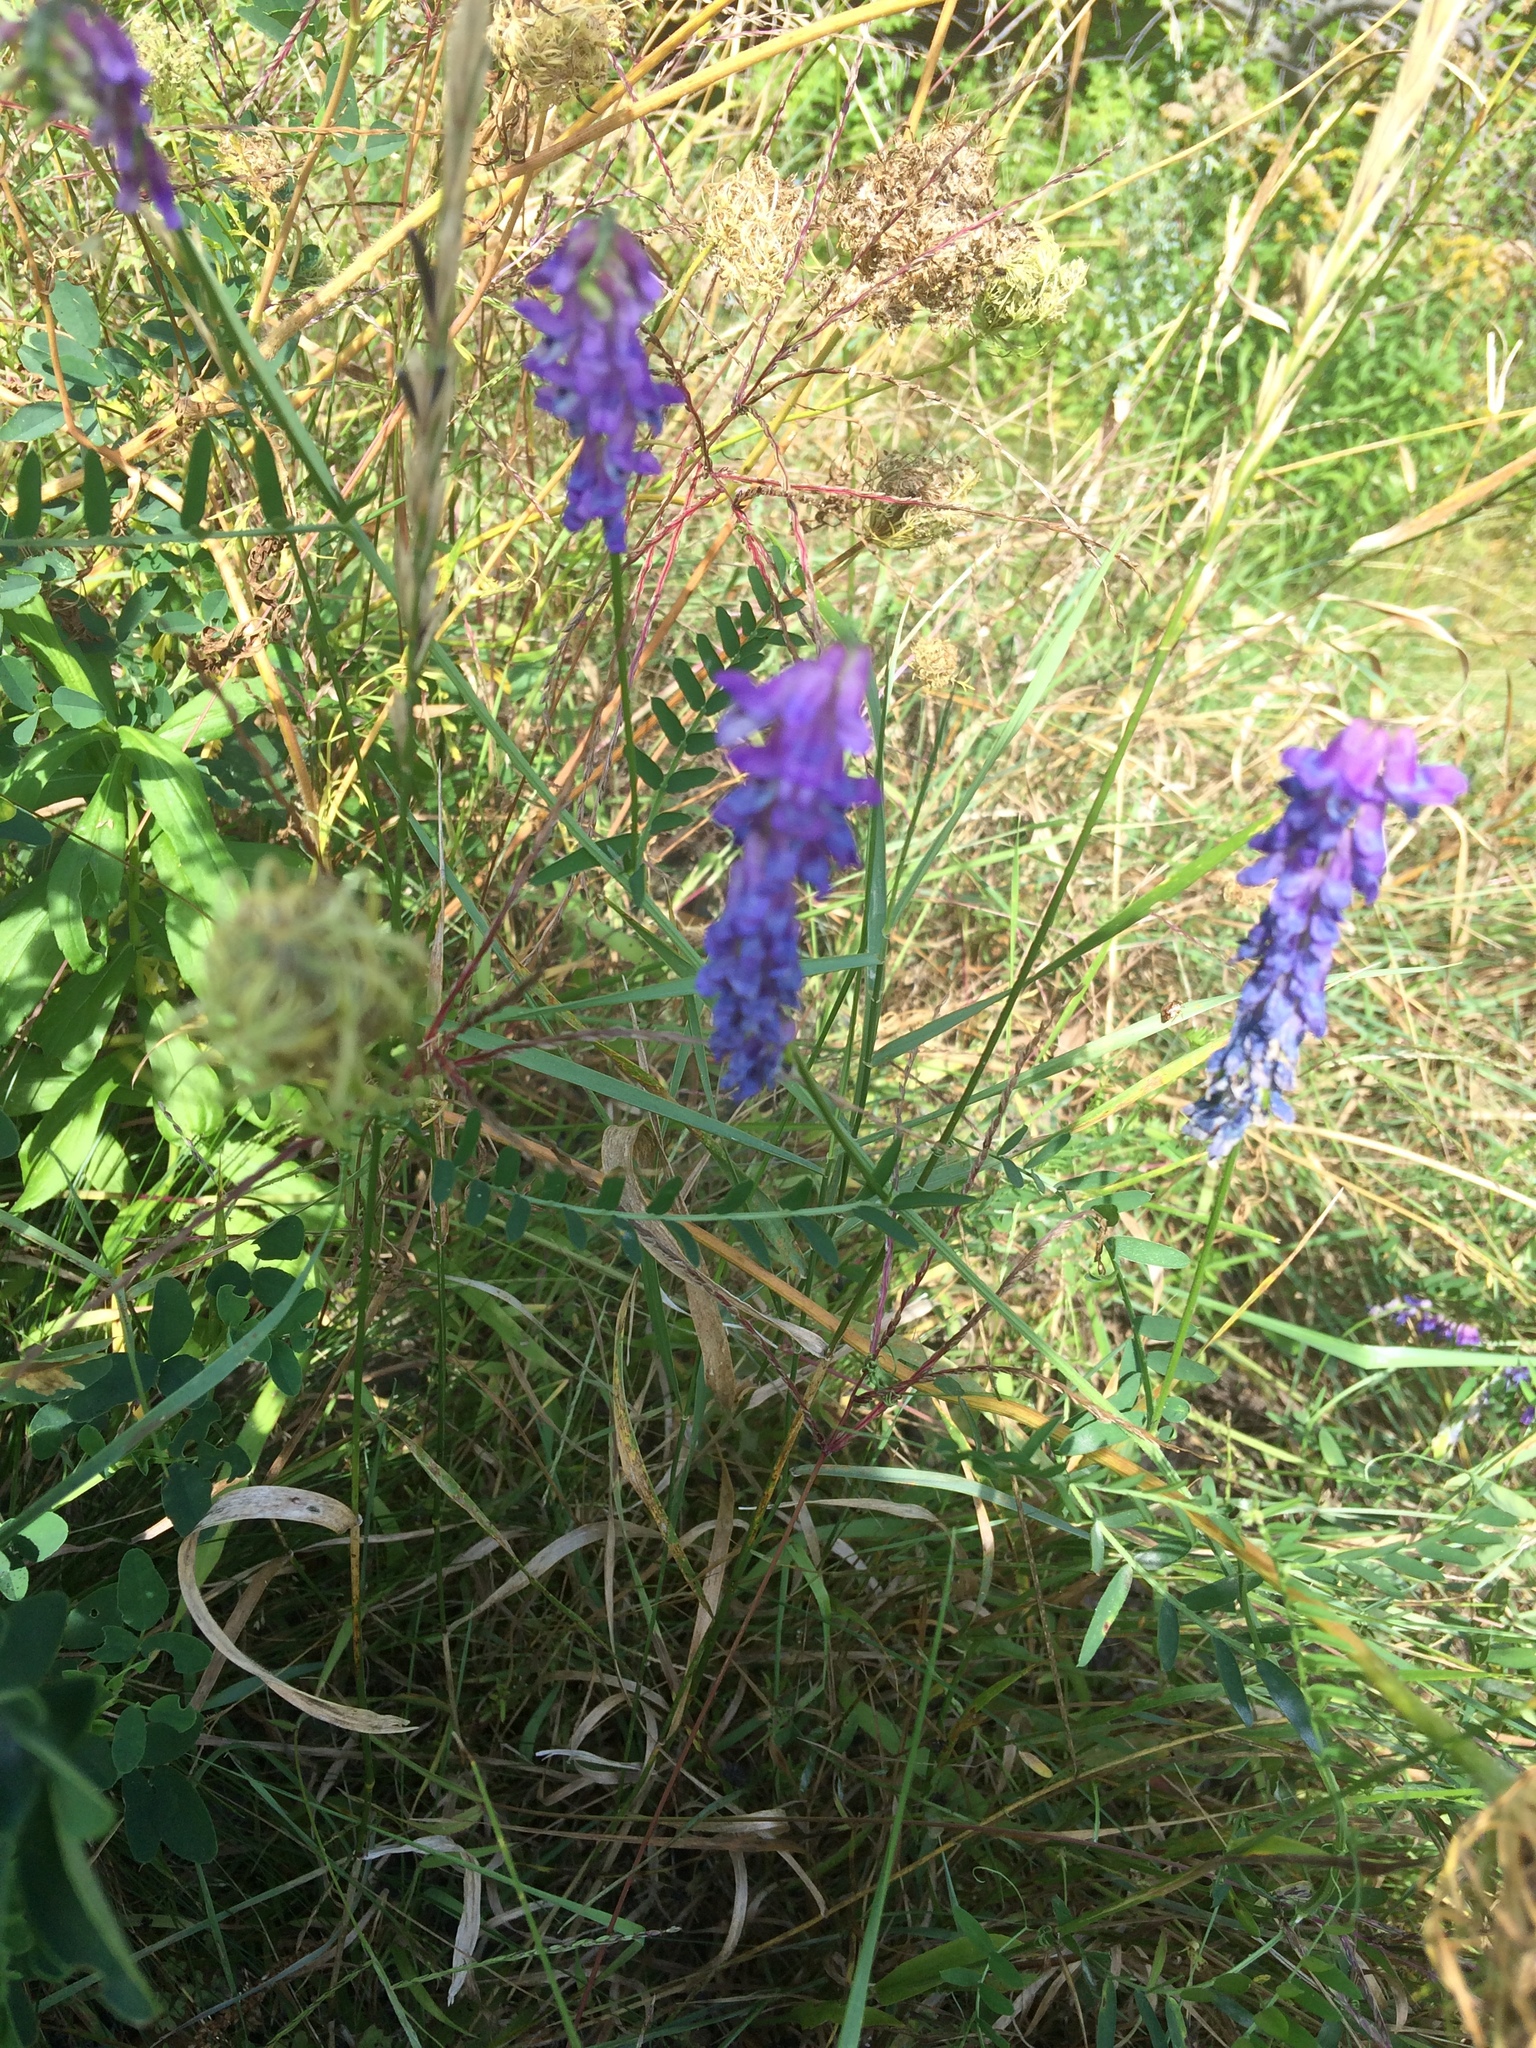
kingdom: Plantae
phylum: Tracheophyta
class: Magnoliopsida
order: Fabales
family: Fabaceae
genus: Vicia
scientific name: Vicia cracca
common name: Bird vetch
